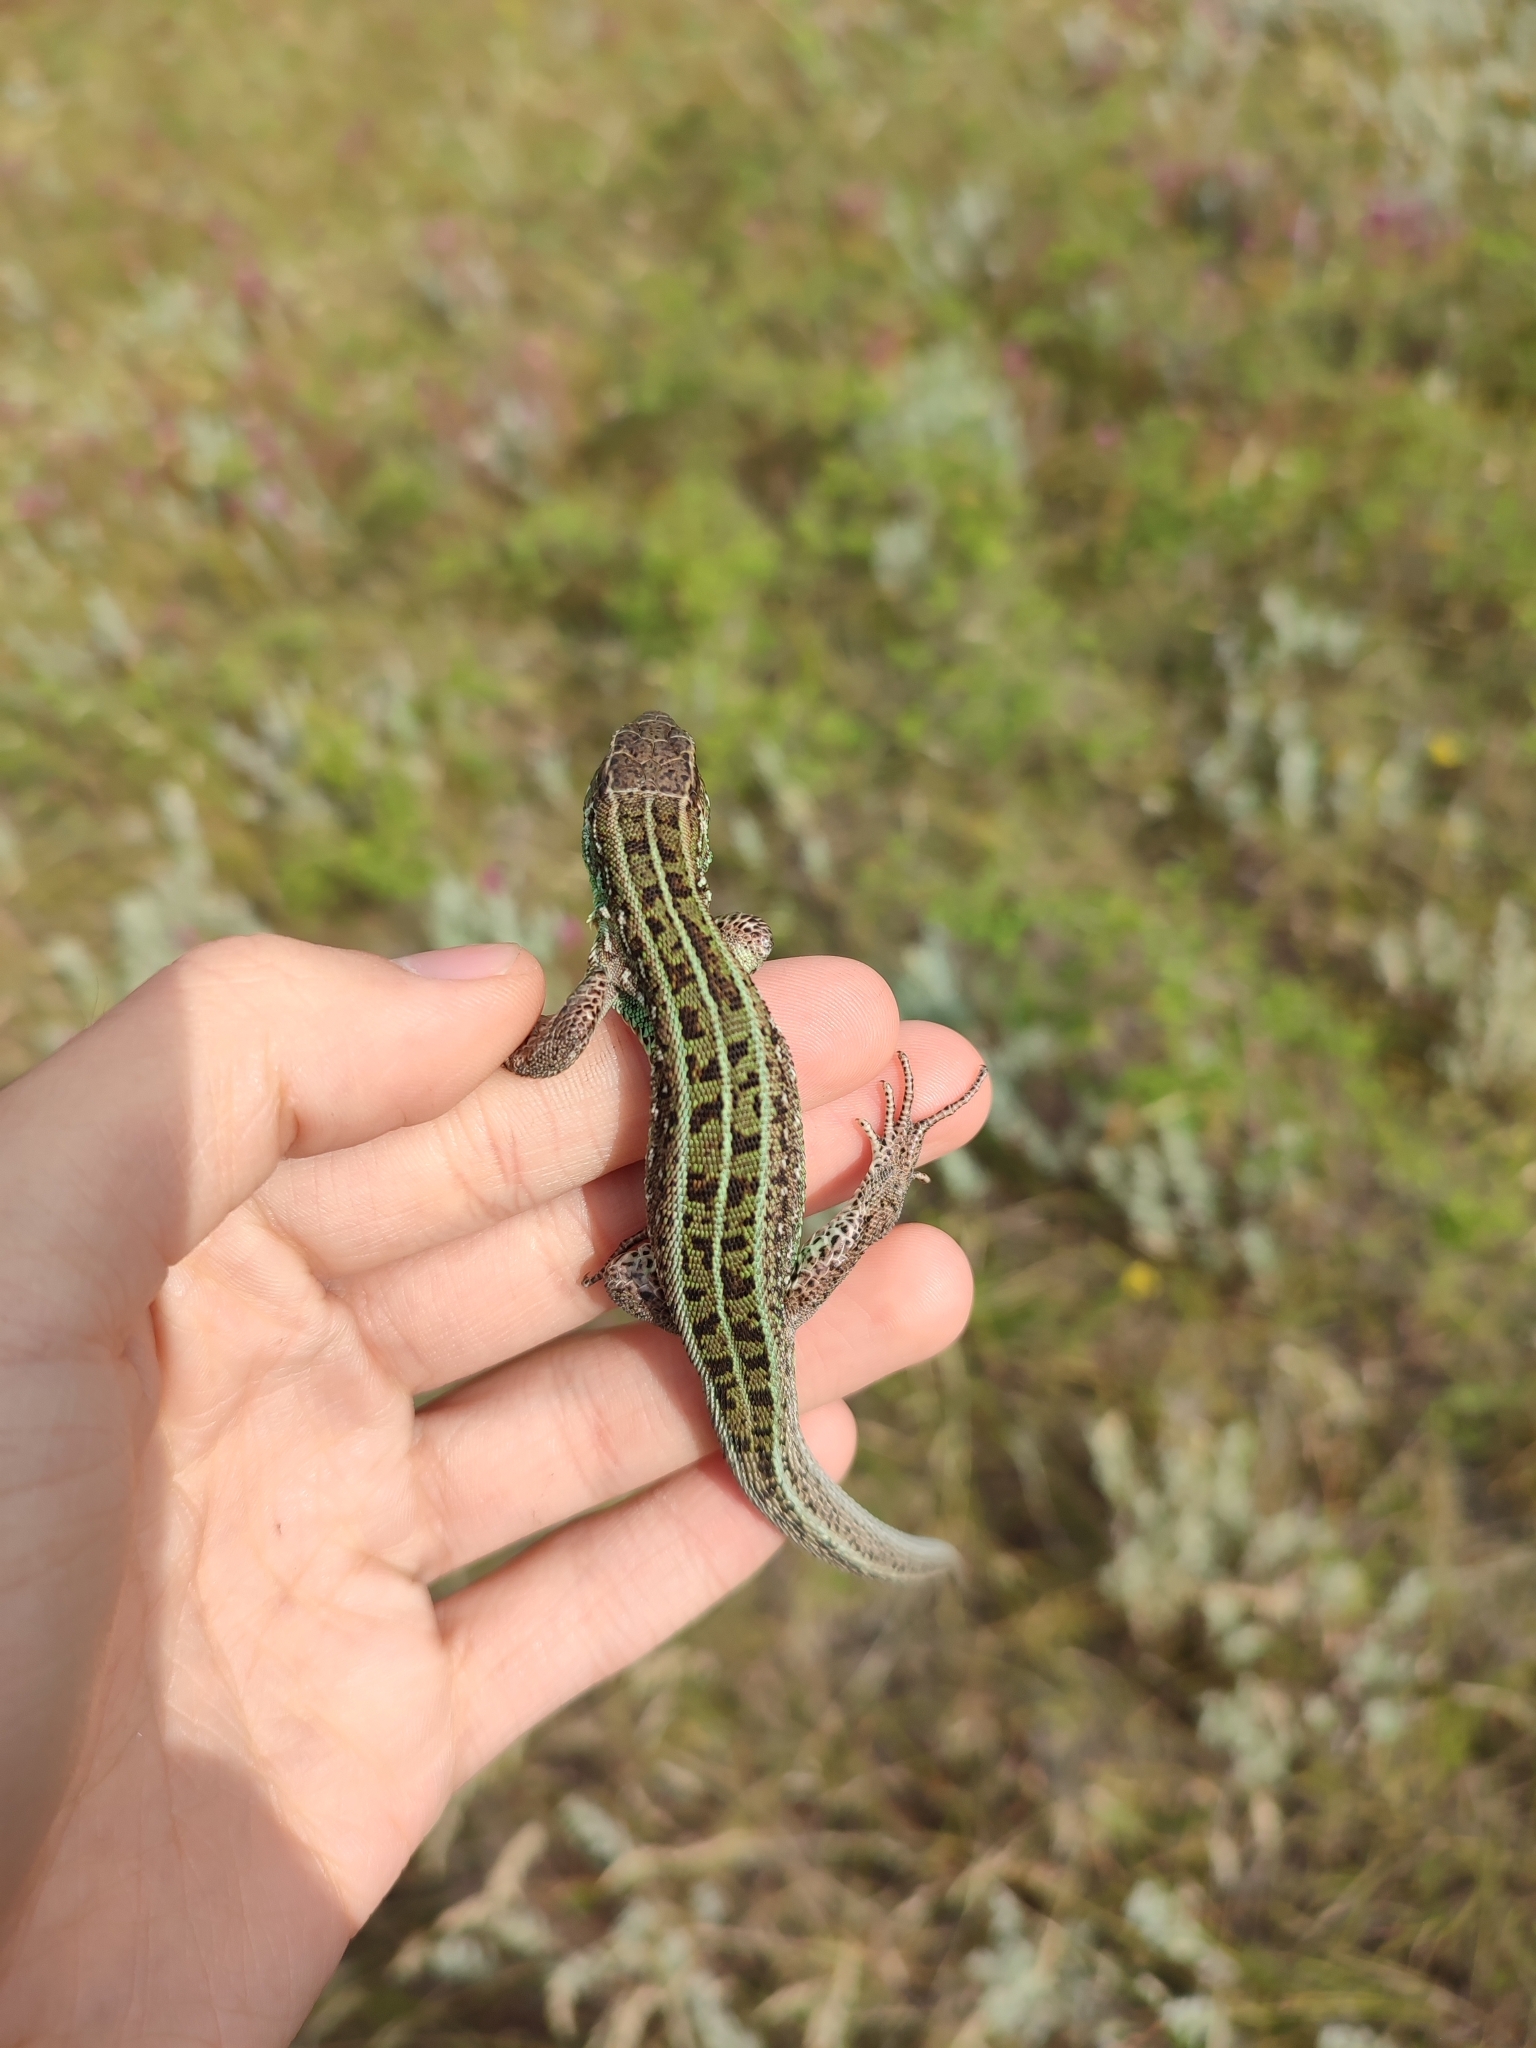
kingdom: Animalia
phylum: Chordata
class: Squamata
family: Lacertidae
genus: Lacerta
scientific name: Lacerta agilis
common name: Sand lizard
